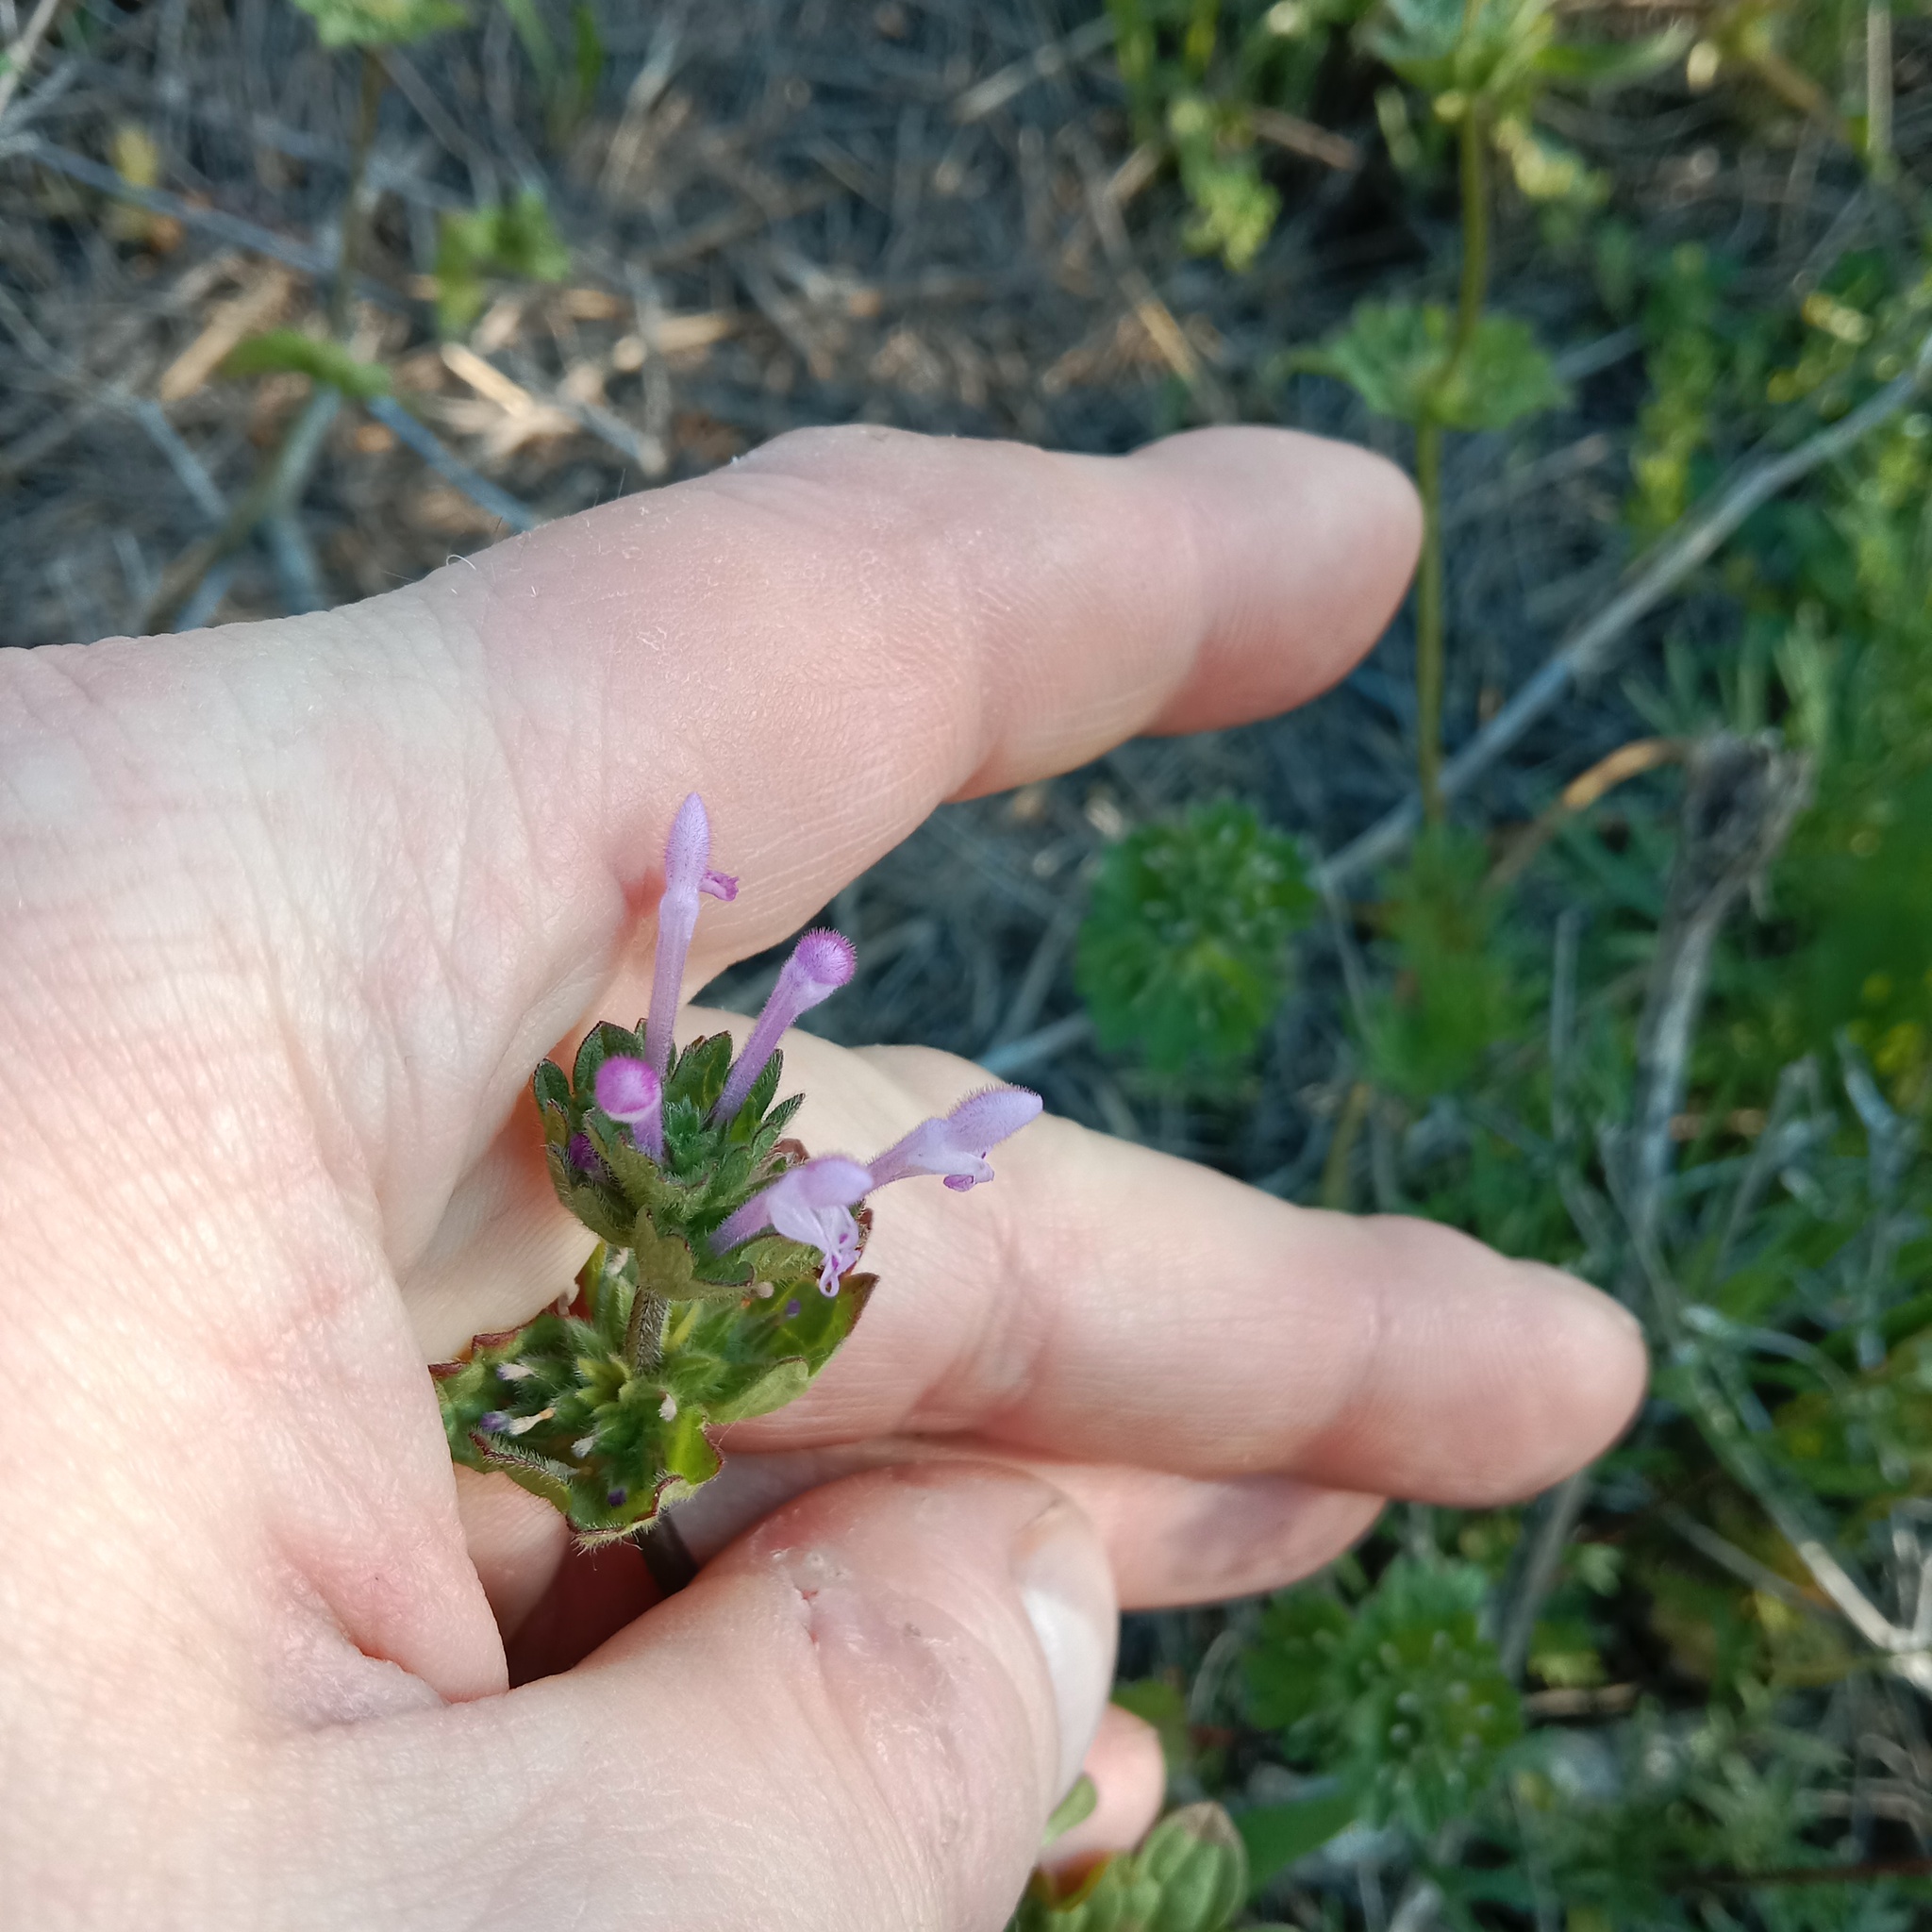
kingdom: Plantae
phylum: Tracheophyta
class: Magnoliopsida
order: Lamiales
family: Lamiaceae
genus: Lamium
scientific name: Lamium amplexicaule
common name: Henbit dead-nettle
